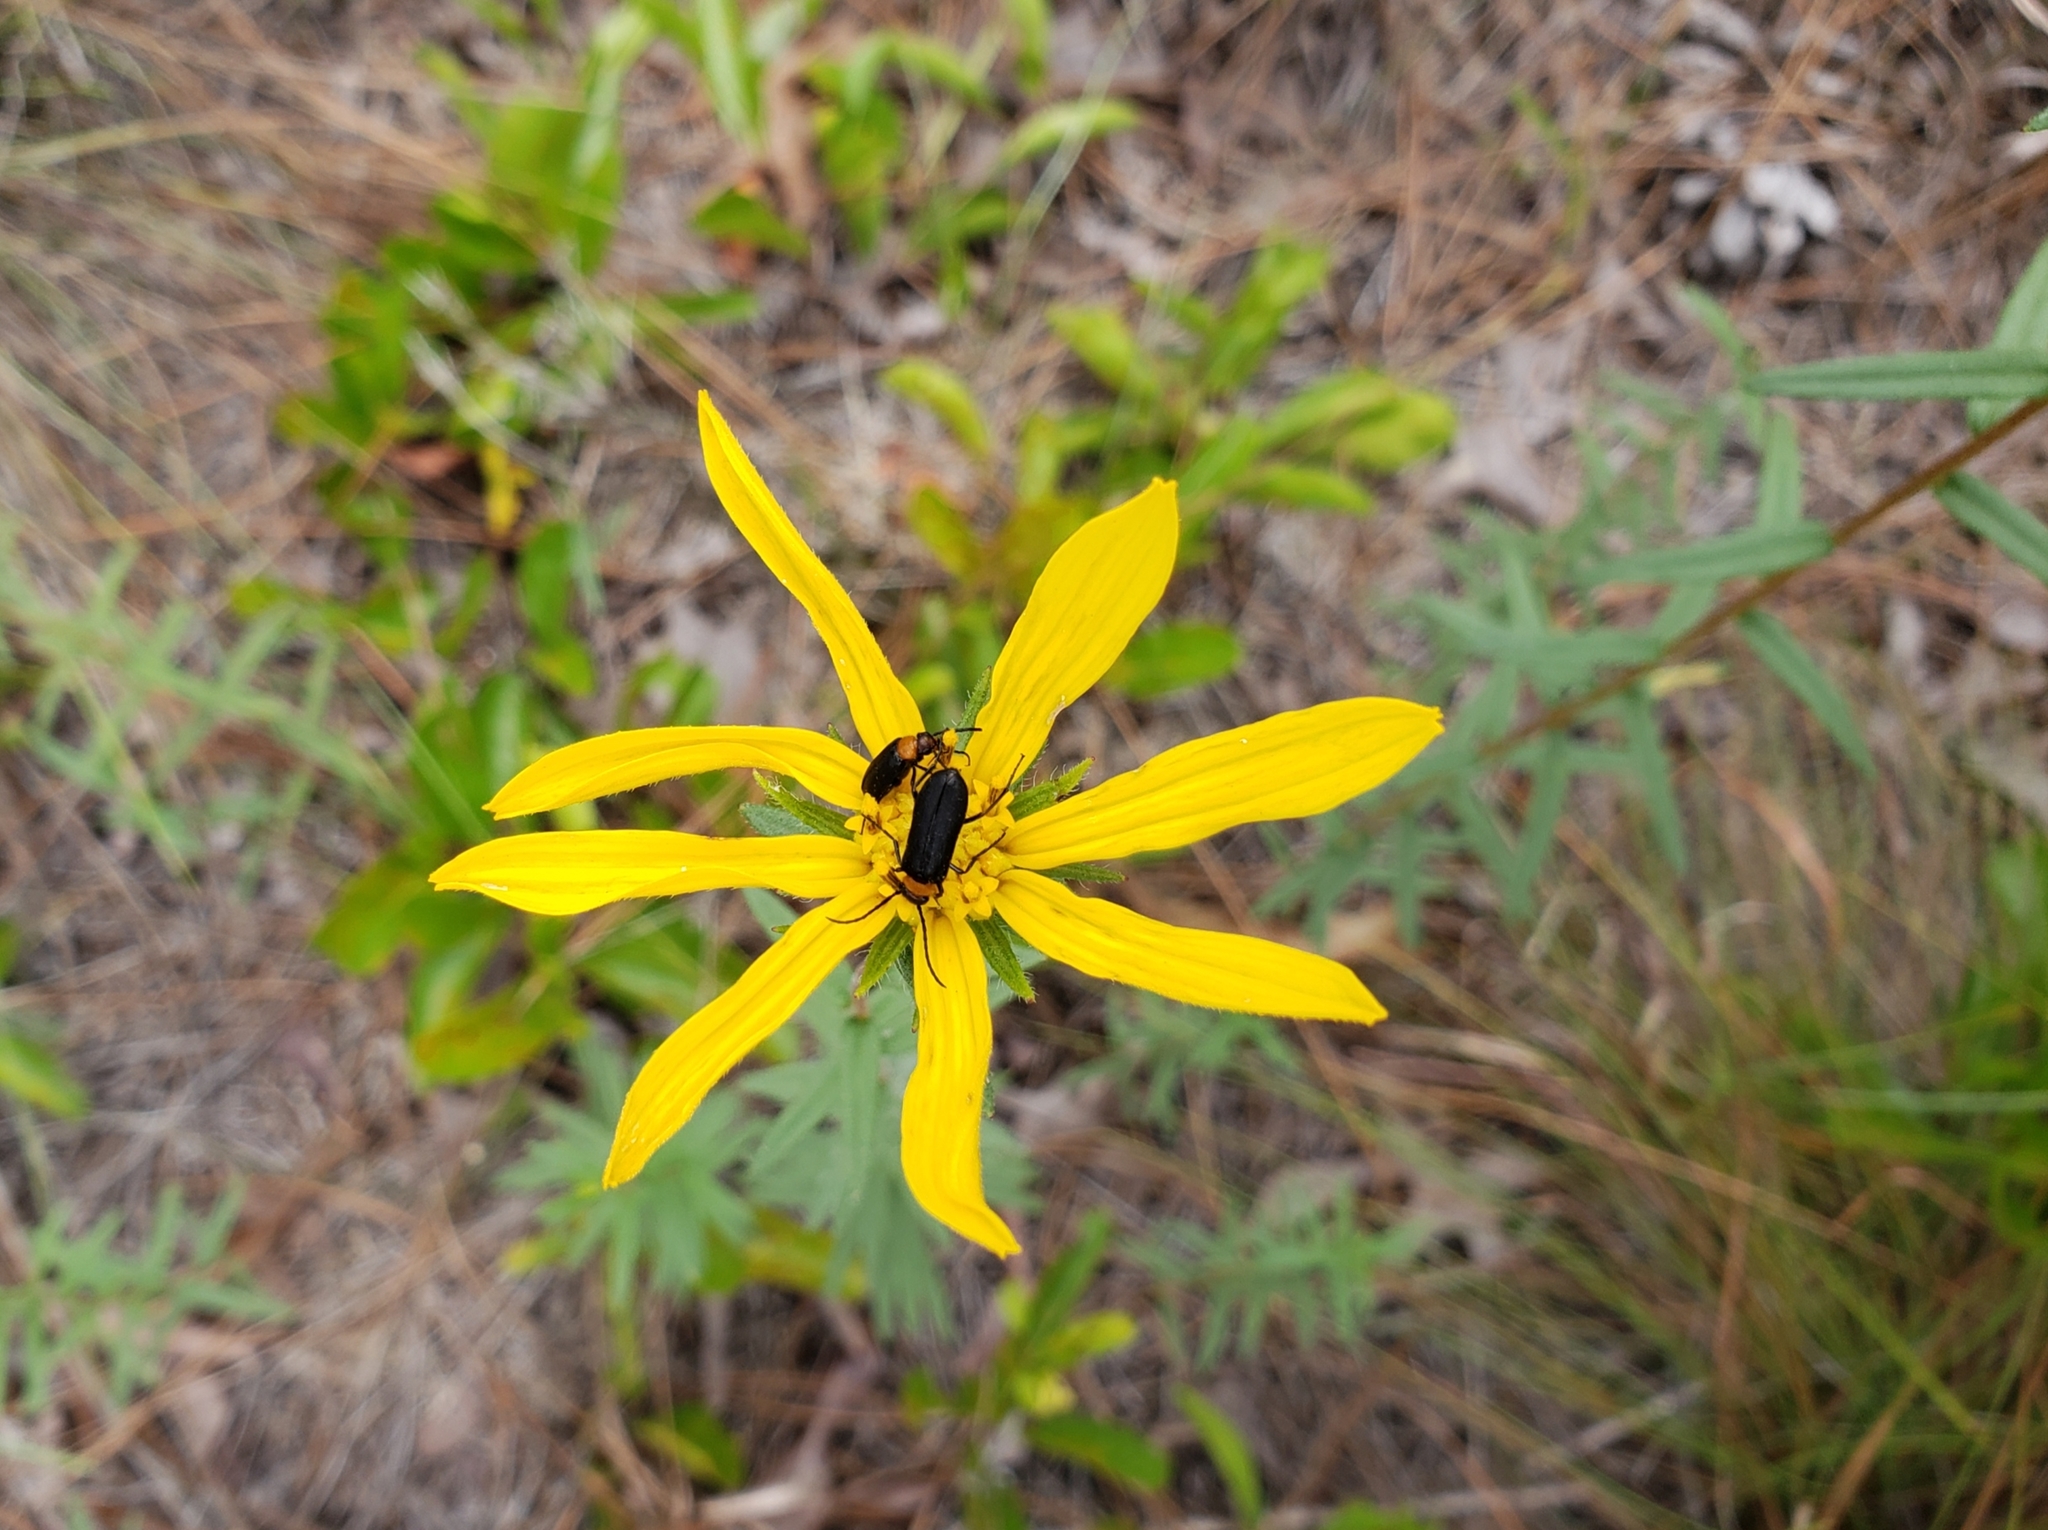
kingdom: Plantae
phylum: Tracheophyta
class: Magnoliopsida
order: Asterales
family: Asteraceae
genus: Phoebanthus
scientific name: Phoebanthus grandiflora
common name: Florida false sunflower
